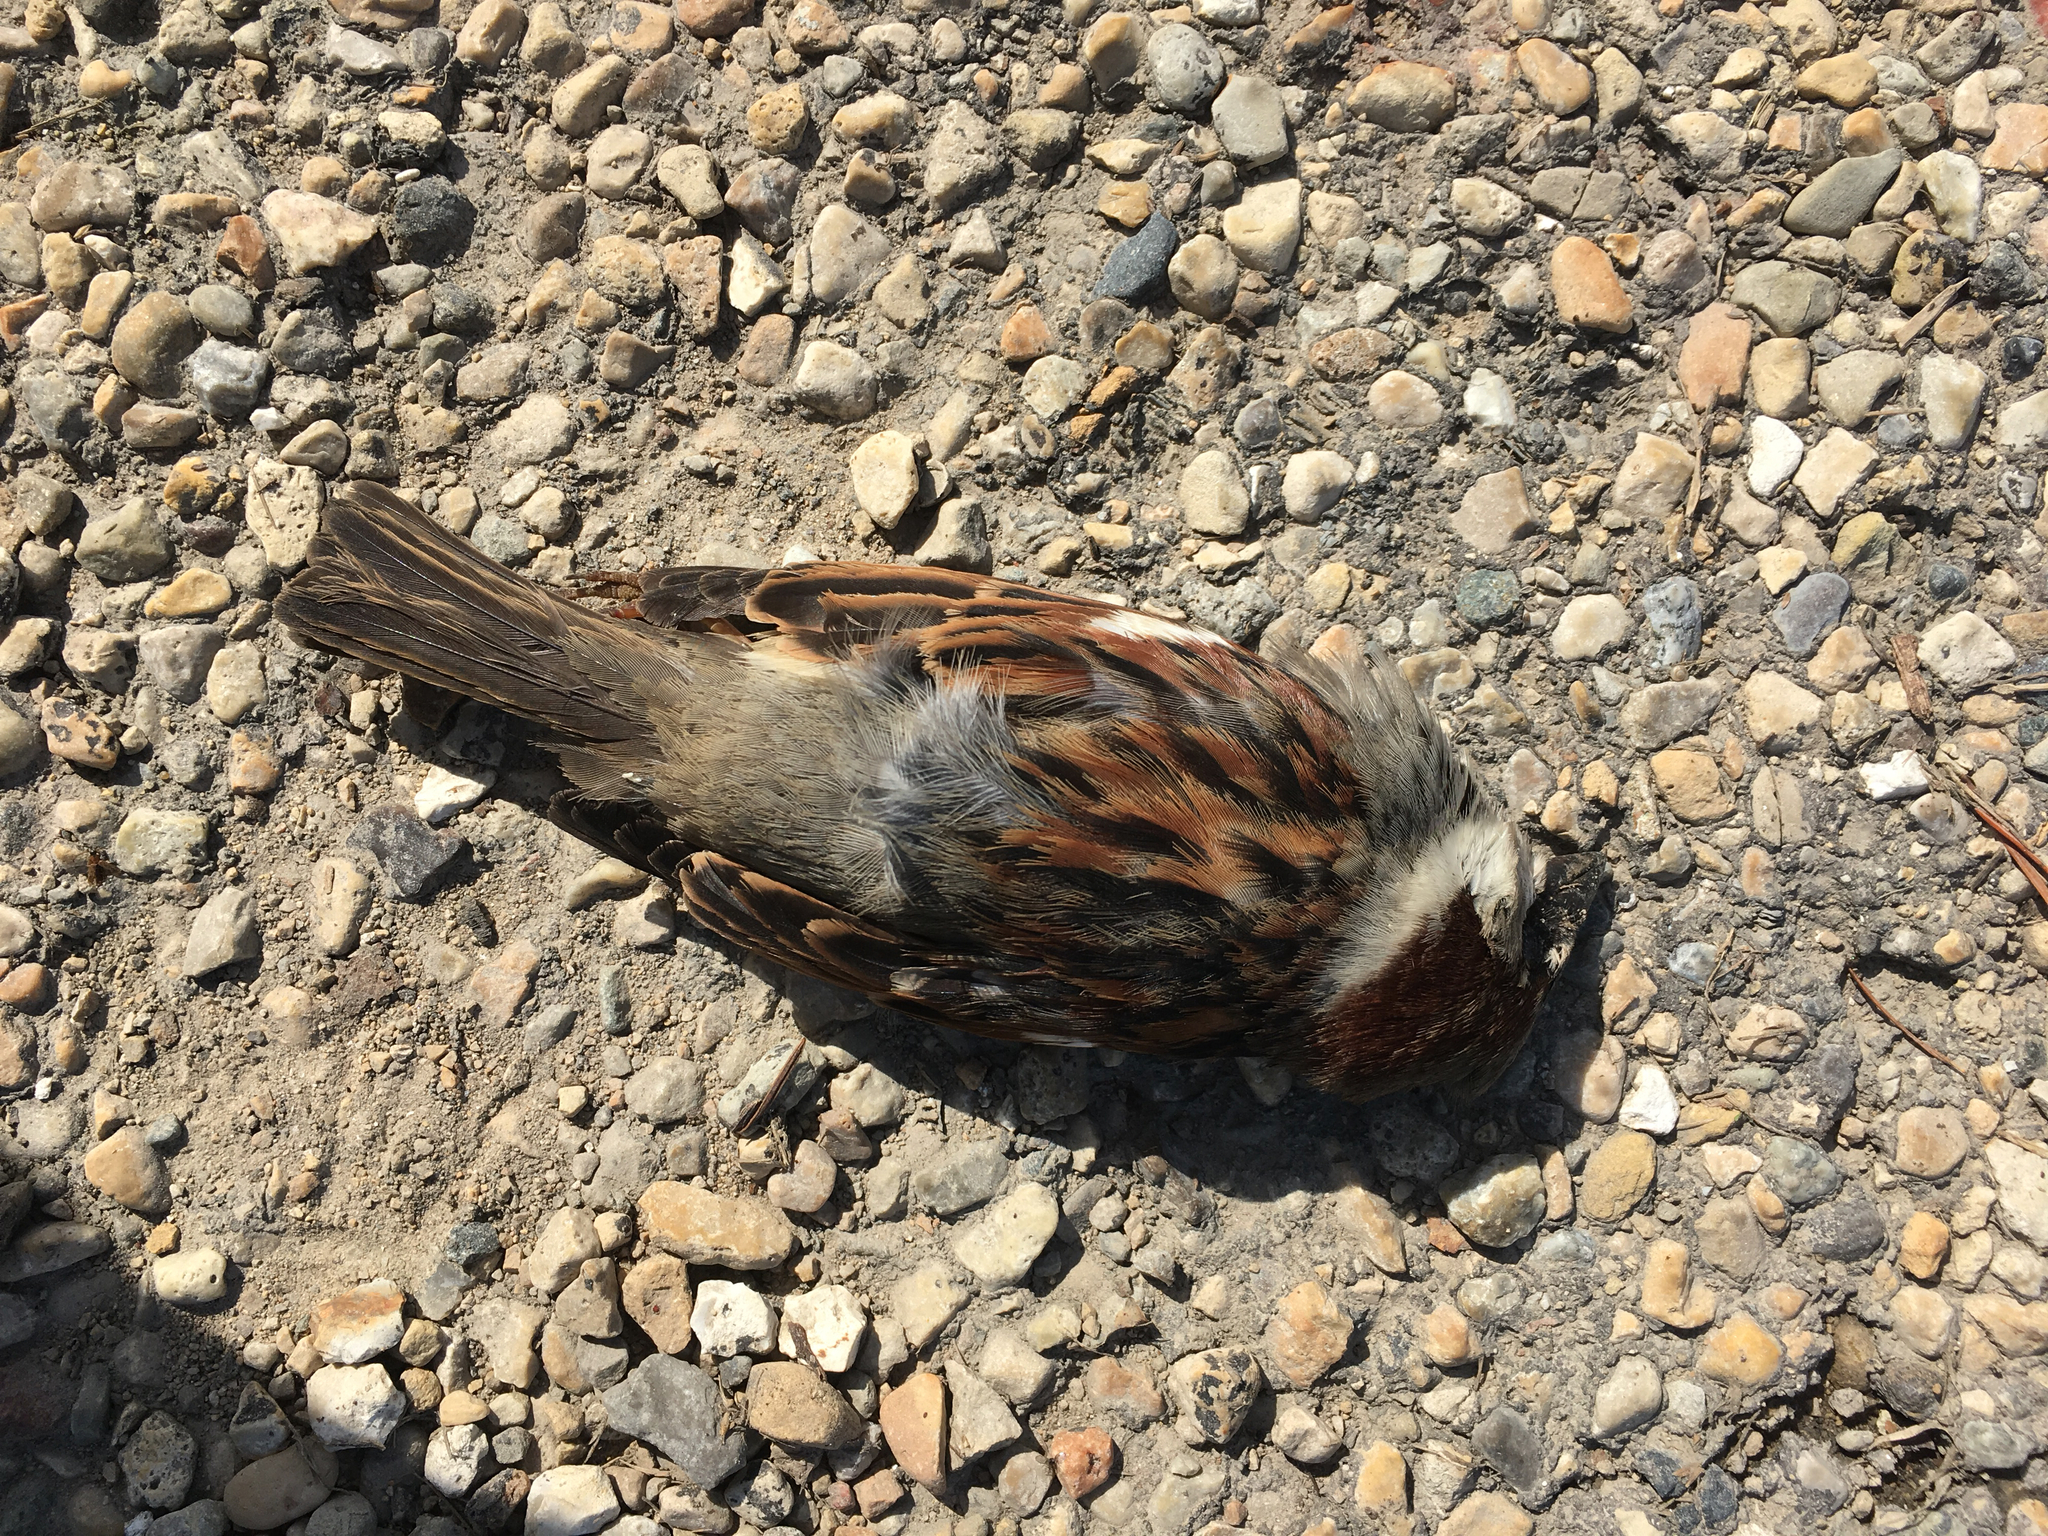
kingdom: Animalia
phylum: Chordata
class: Aves
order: Passeriformes
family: Passeridae
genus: Passer
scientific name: Passer domesticus
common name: House sparrow
